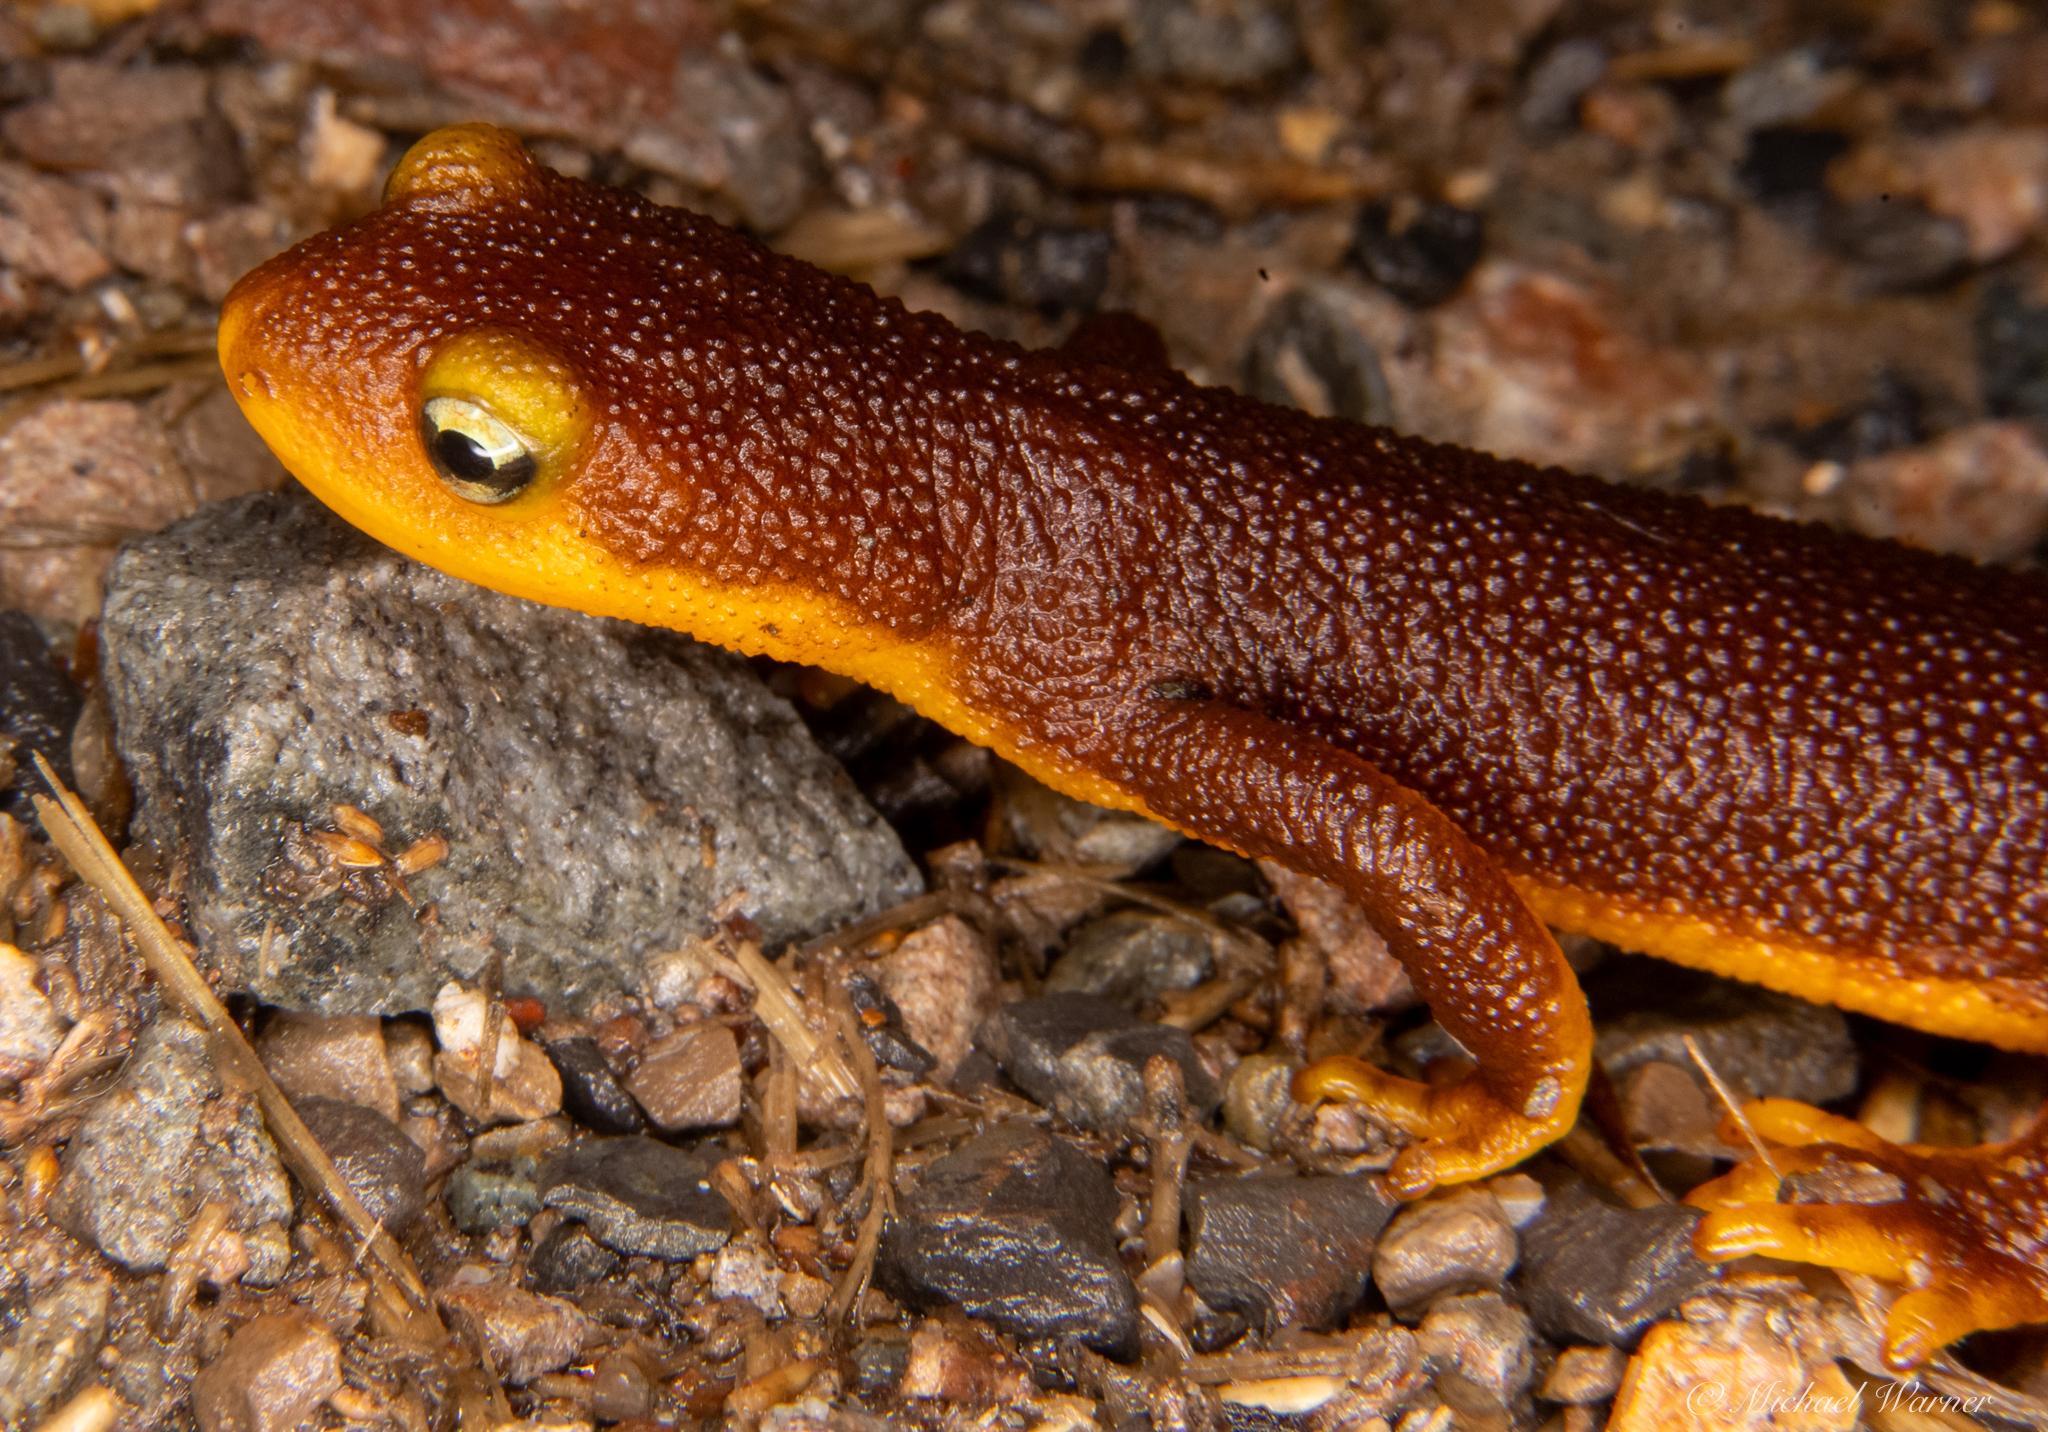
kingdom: Animalia
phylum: Chordata
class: Amphibia
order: Caudata
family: Salamandridae
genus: Taricha
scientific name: Taricha torosa
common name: California newt
